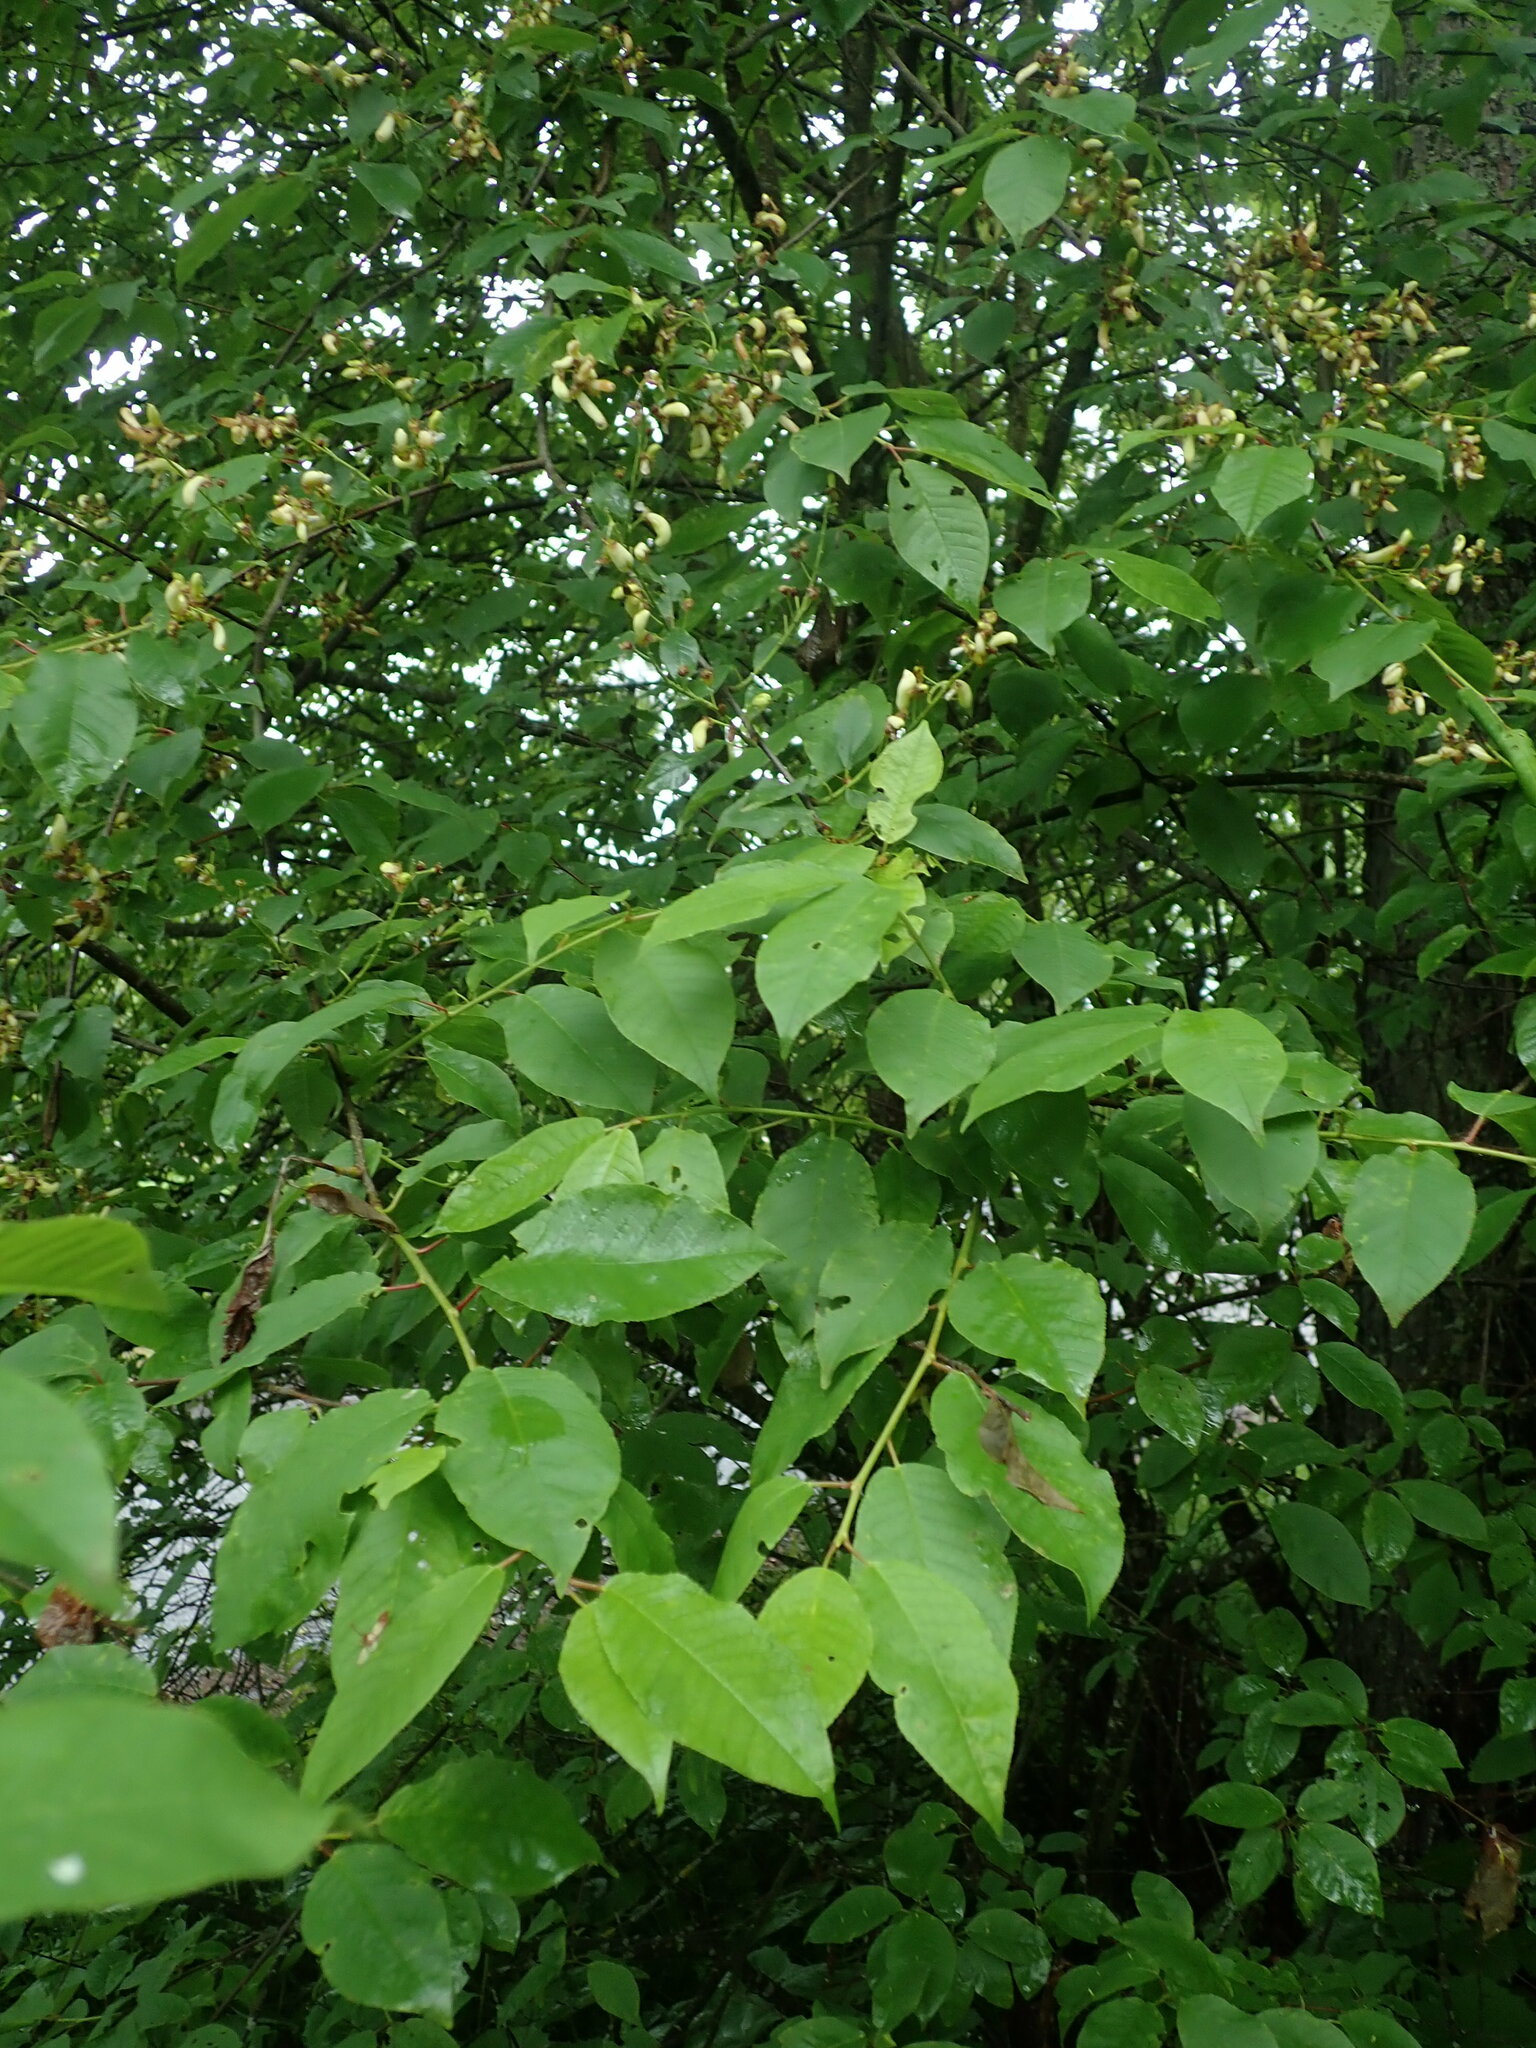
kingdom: Plantae
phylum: Tracheophyta
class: Magnoliopsida
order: Rosales
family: Rosaceae
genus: Prunus
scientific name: Prunus padus
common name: Bird cherry
